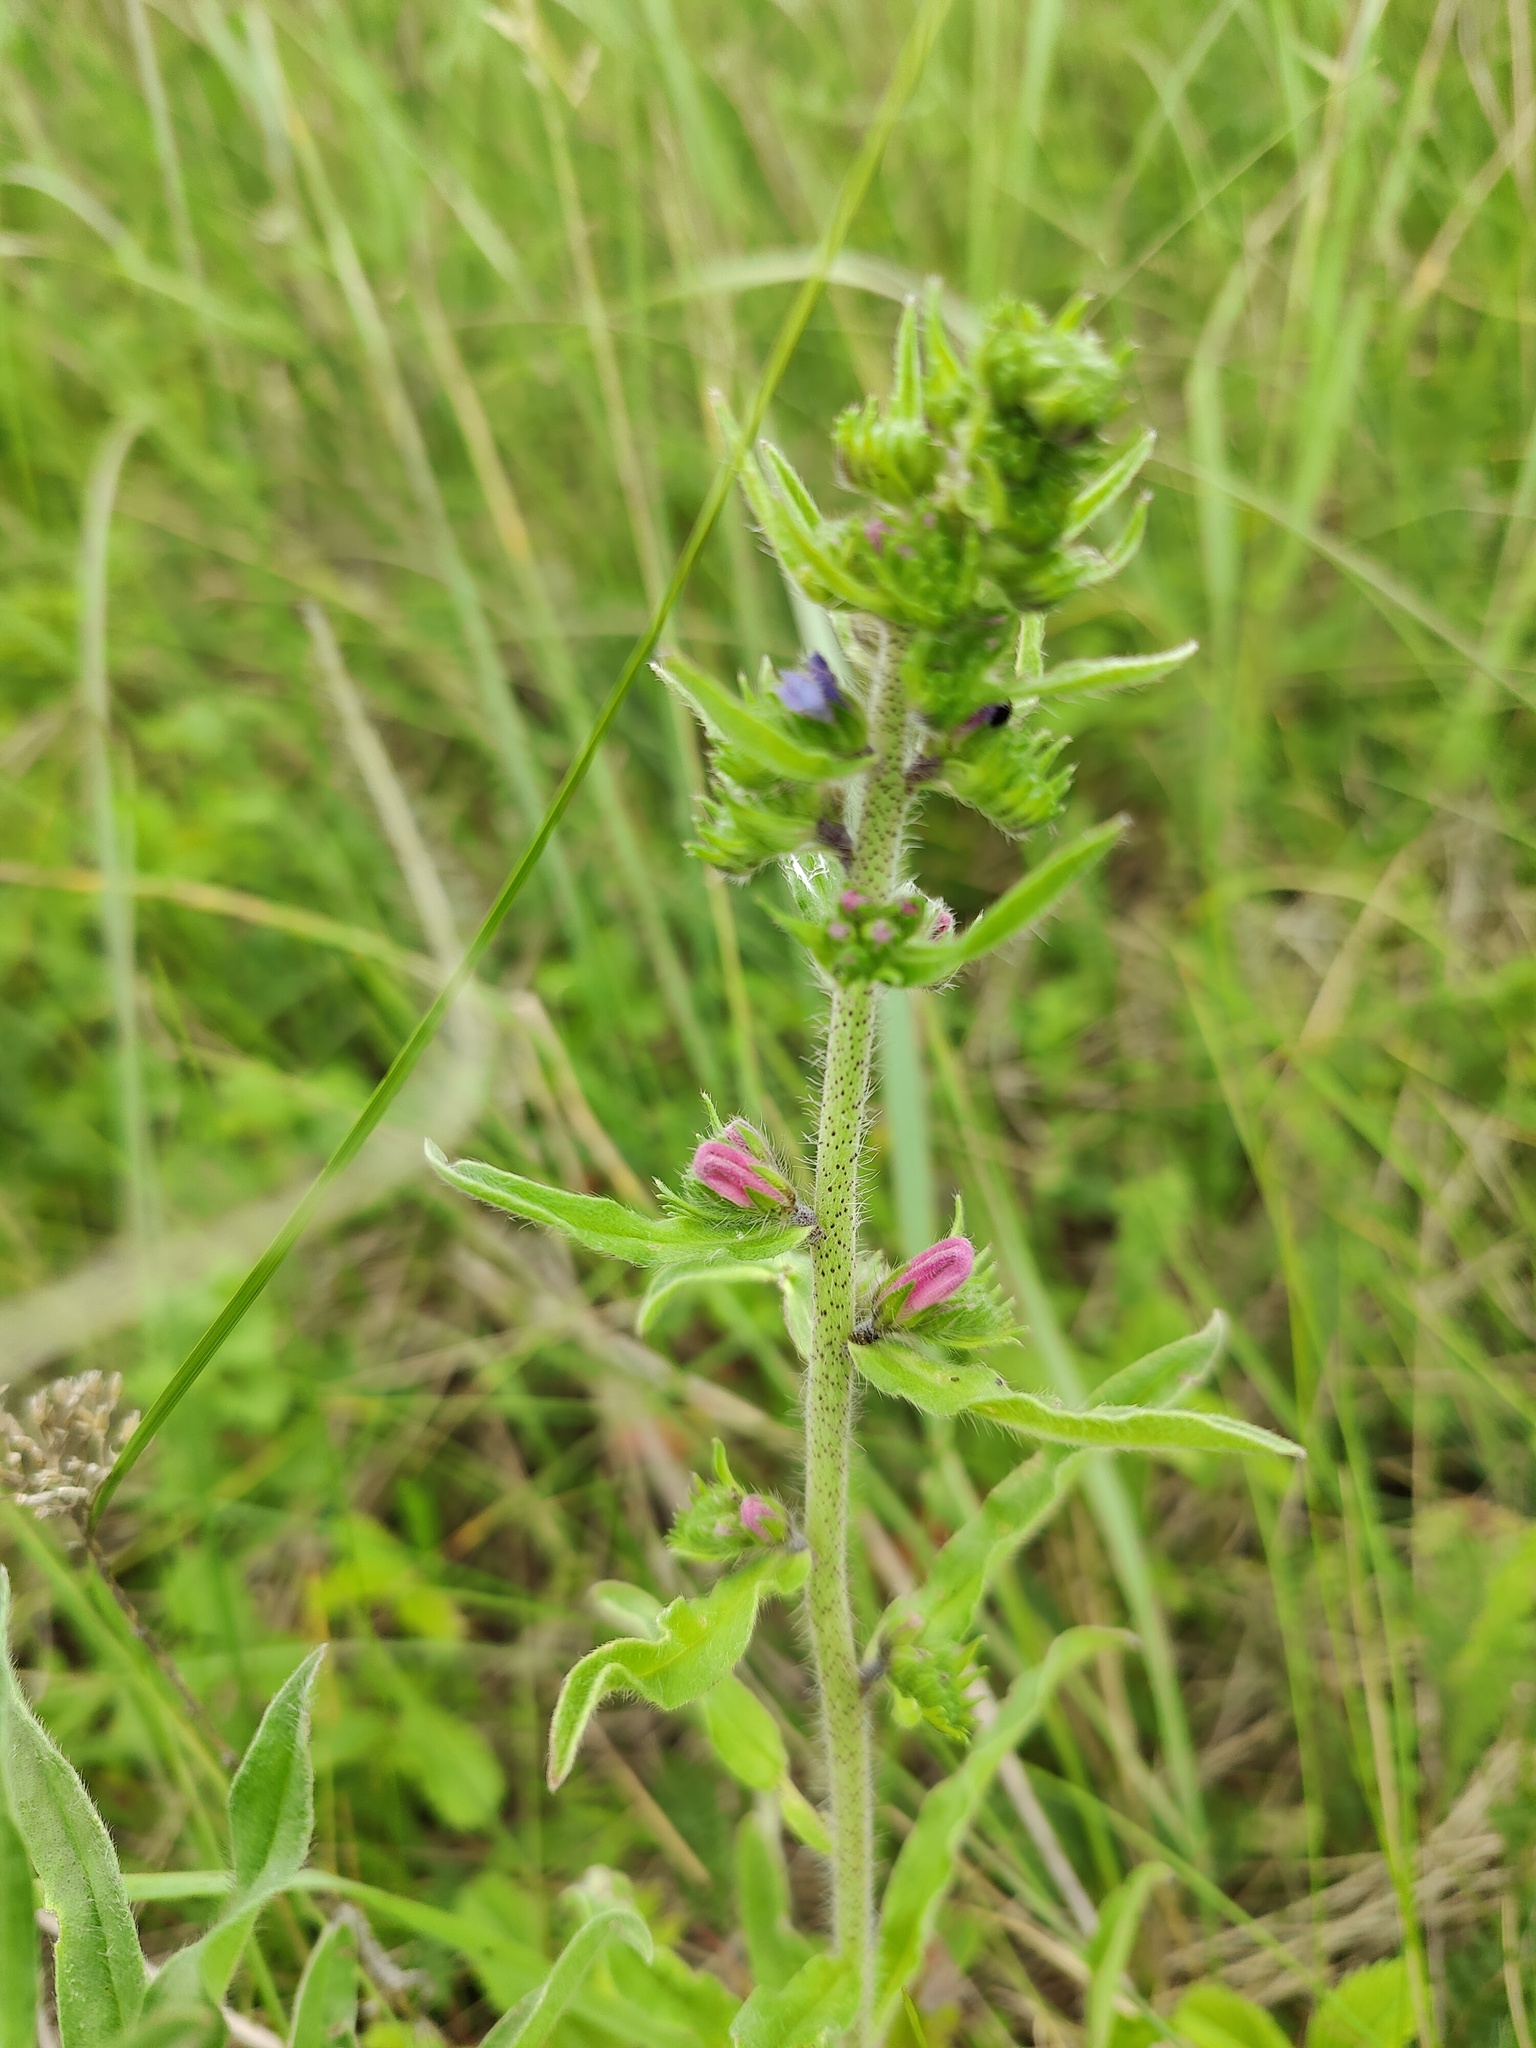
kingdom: Plantae
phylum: Tracheophyta
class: Magnoliopsida
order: Boraginales
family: Boraginaceae
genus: Echium
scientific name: Echium vulgare
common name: Common viper's bugloss
